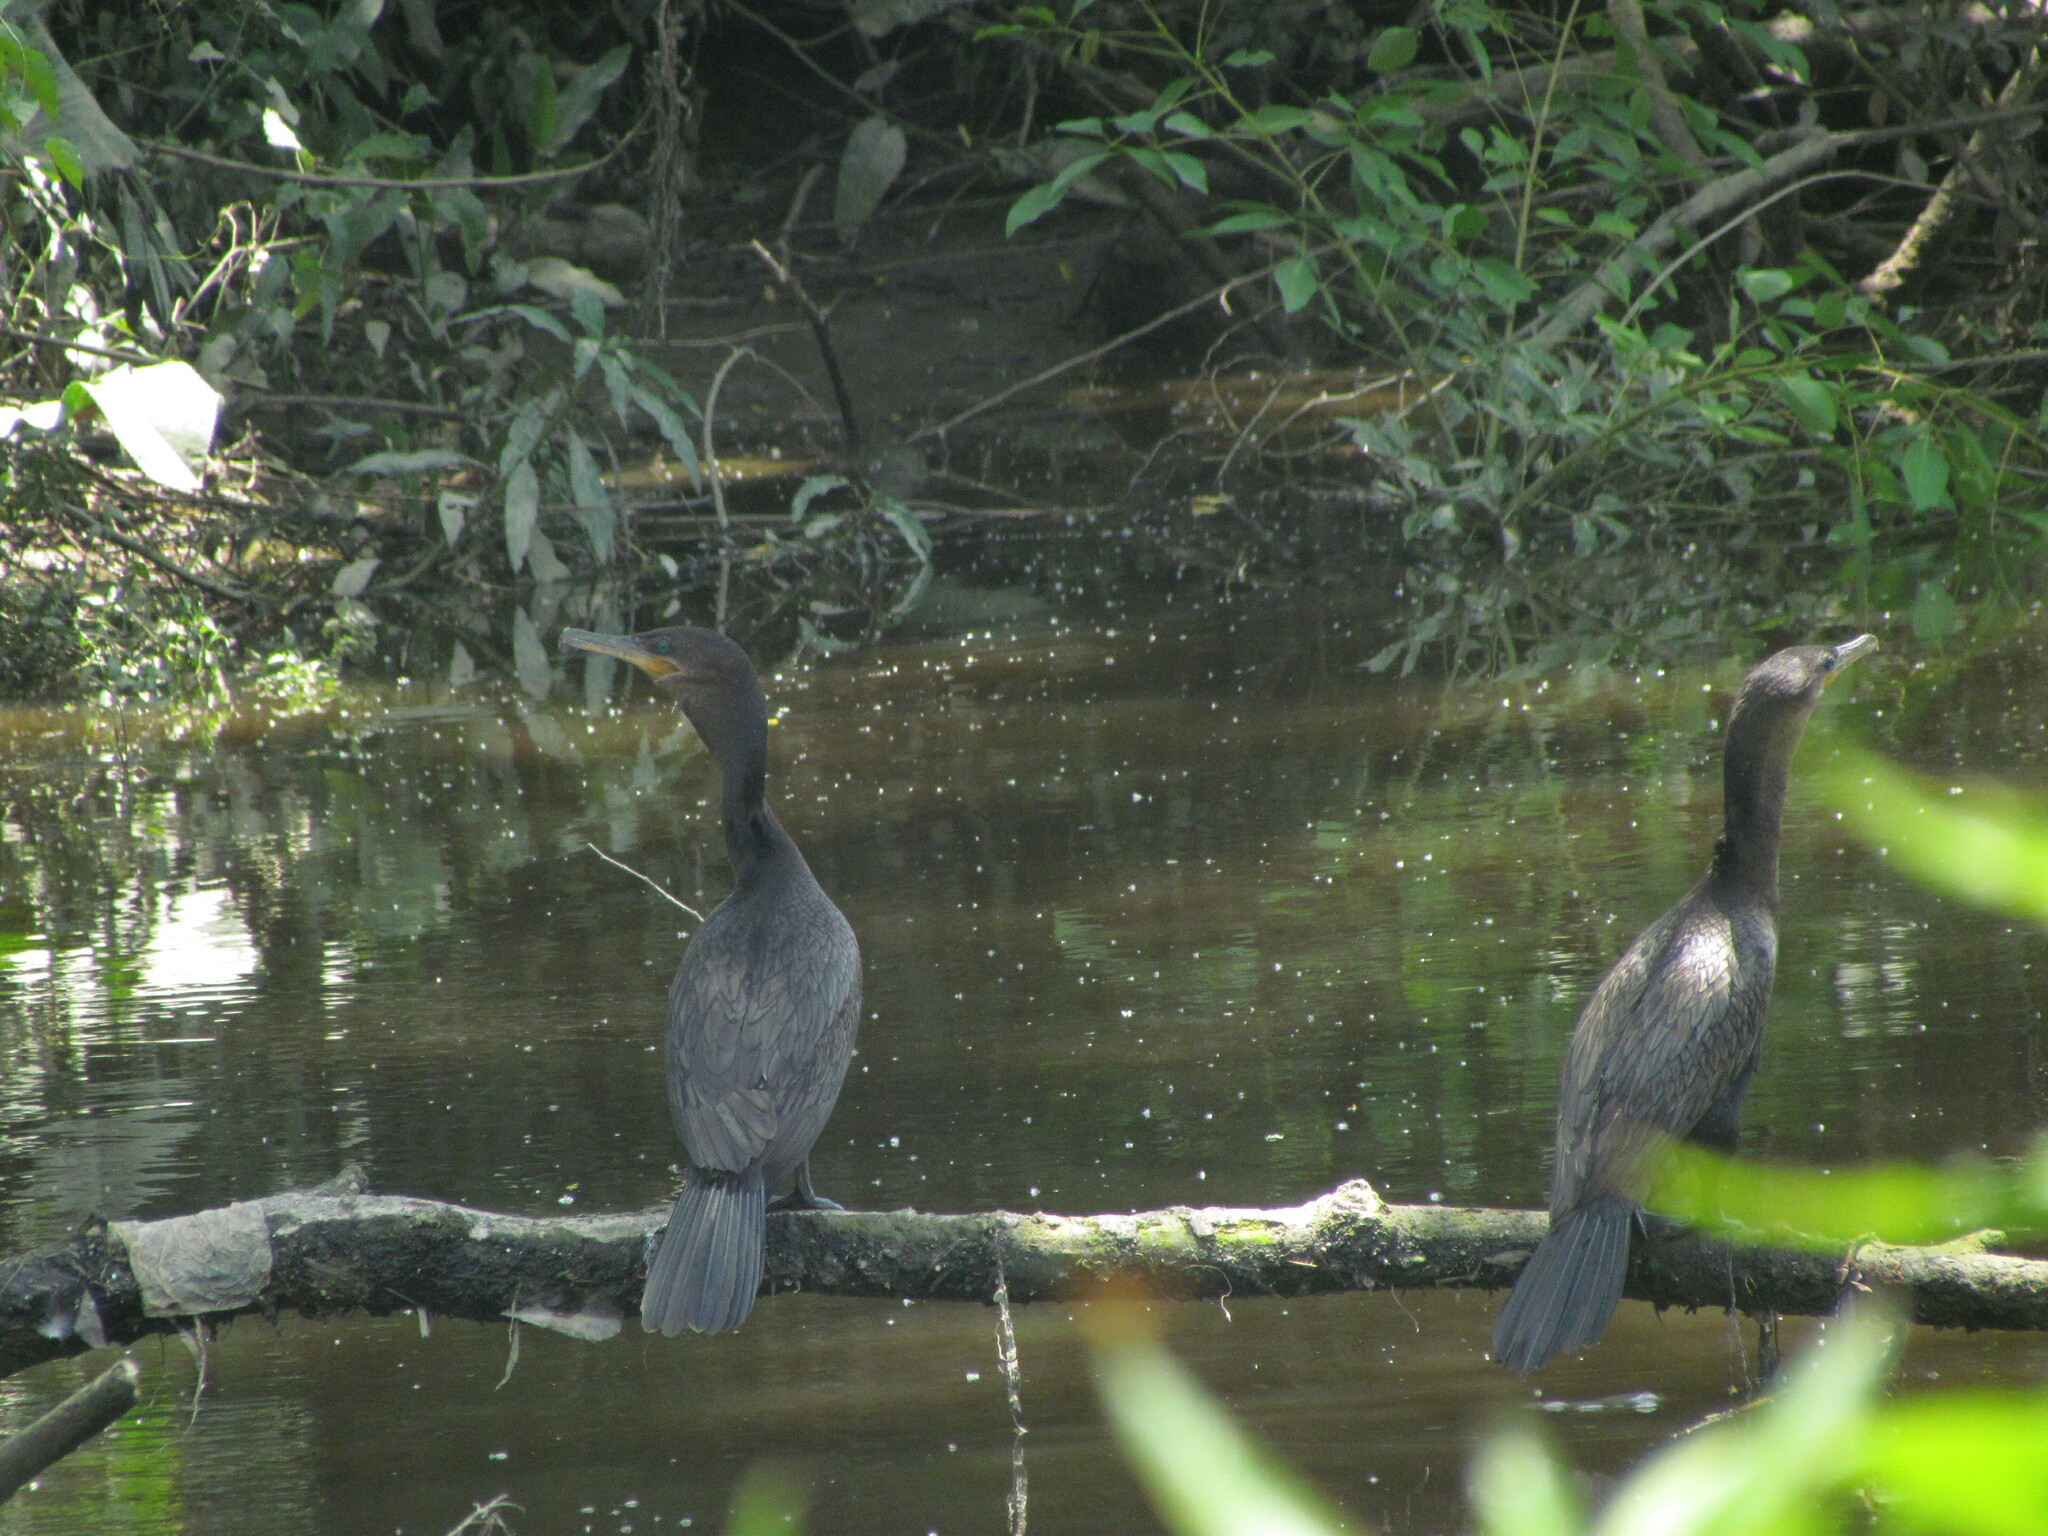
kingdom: Animalia
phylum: Chordata
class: Aves
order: Suliformes
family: Phalacrocoracidae
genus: Phalacrocorax
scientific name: Phalacrocorax brasilianus
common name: Neotropic cormorant
